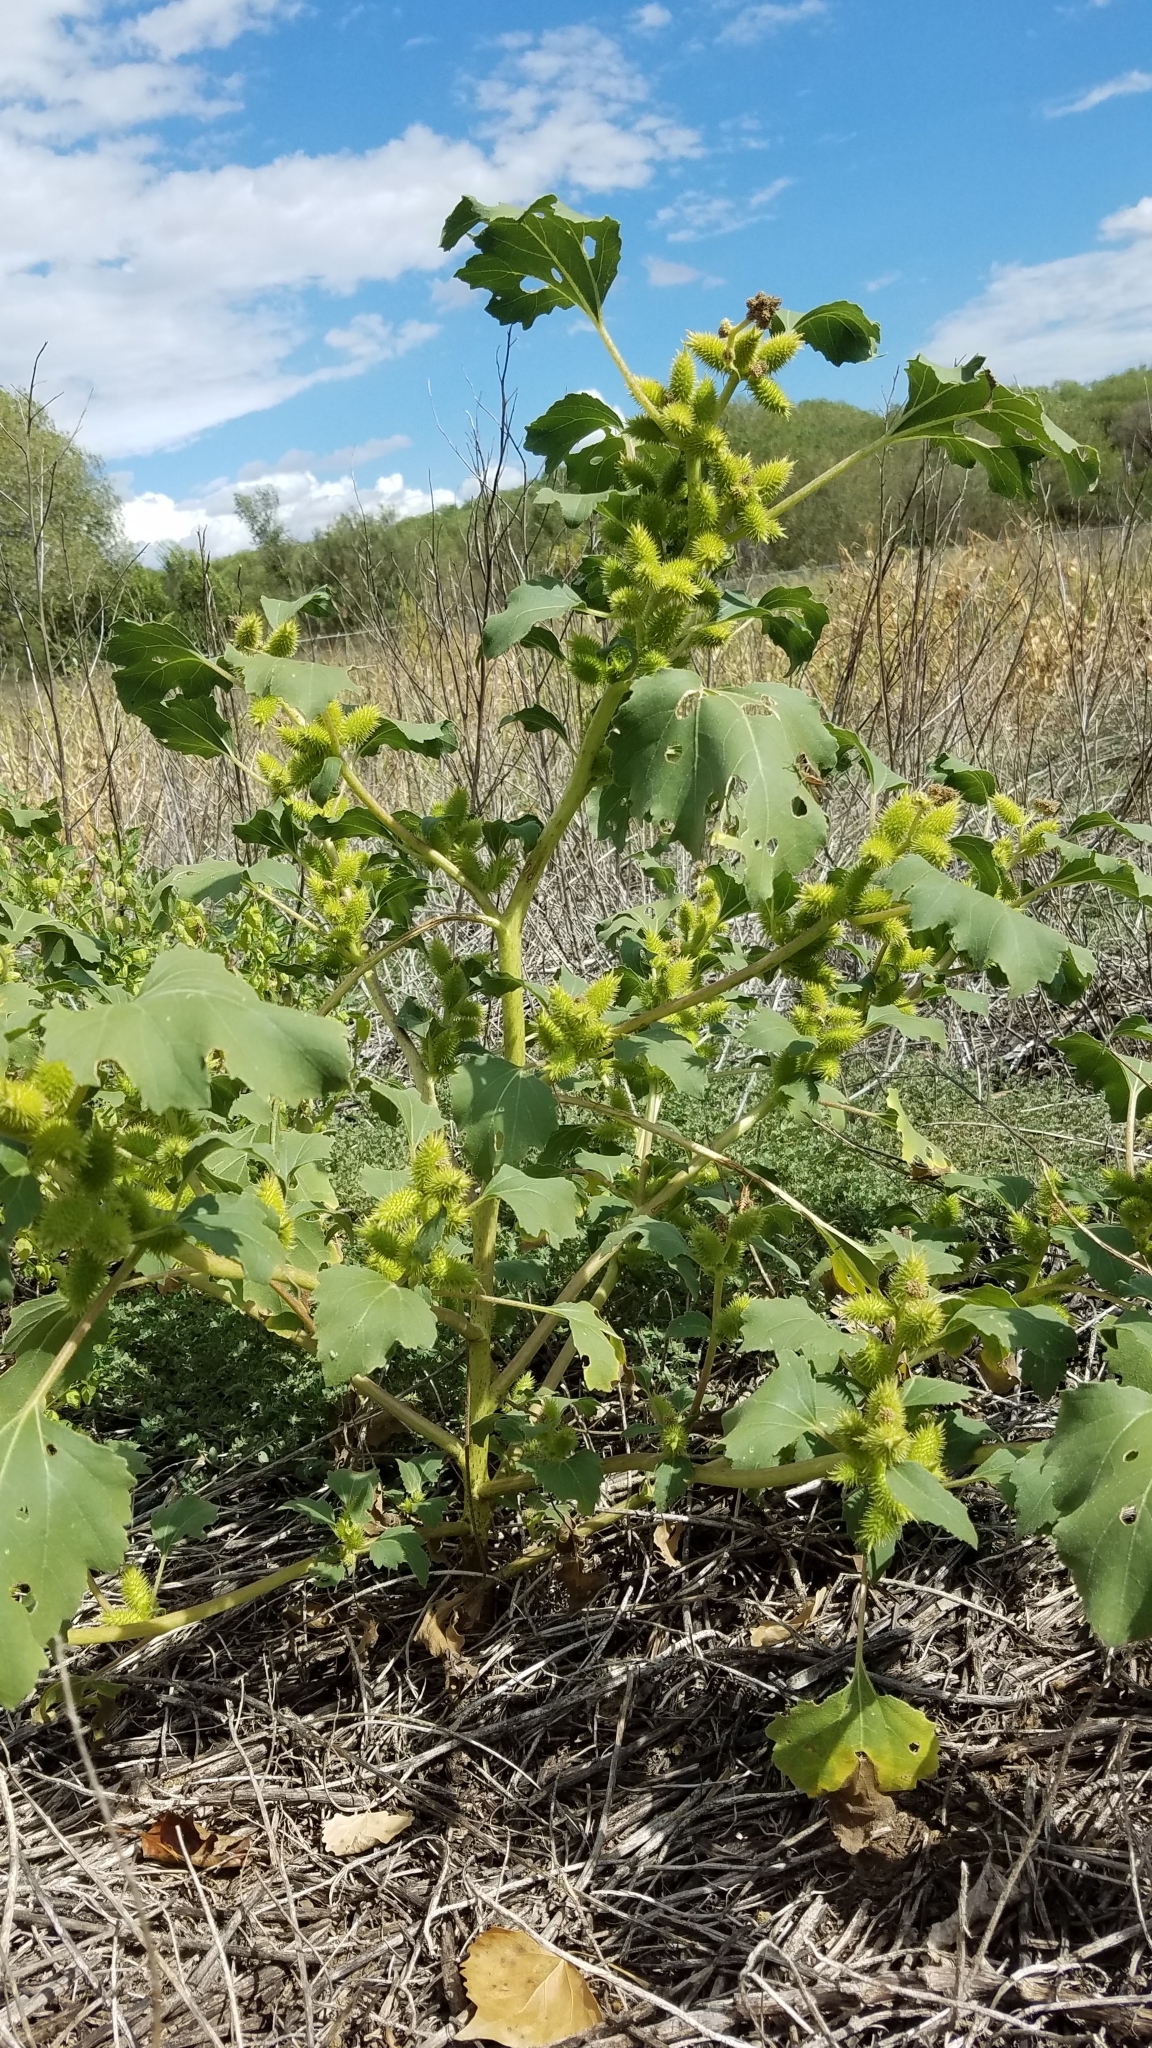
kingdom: Plantae
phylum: Tracheophyta
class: Magnoliopsida
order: Asterales
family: Asteraceae
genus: Xanthium
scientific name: Xanthium strumarium
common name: Rough cocklebur
